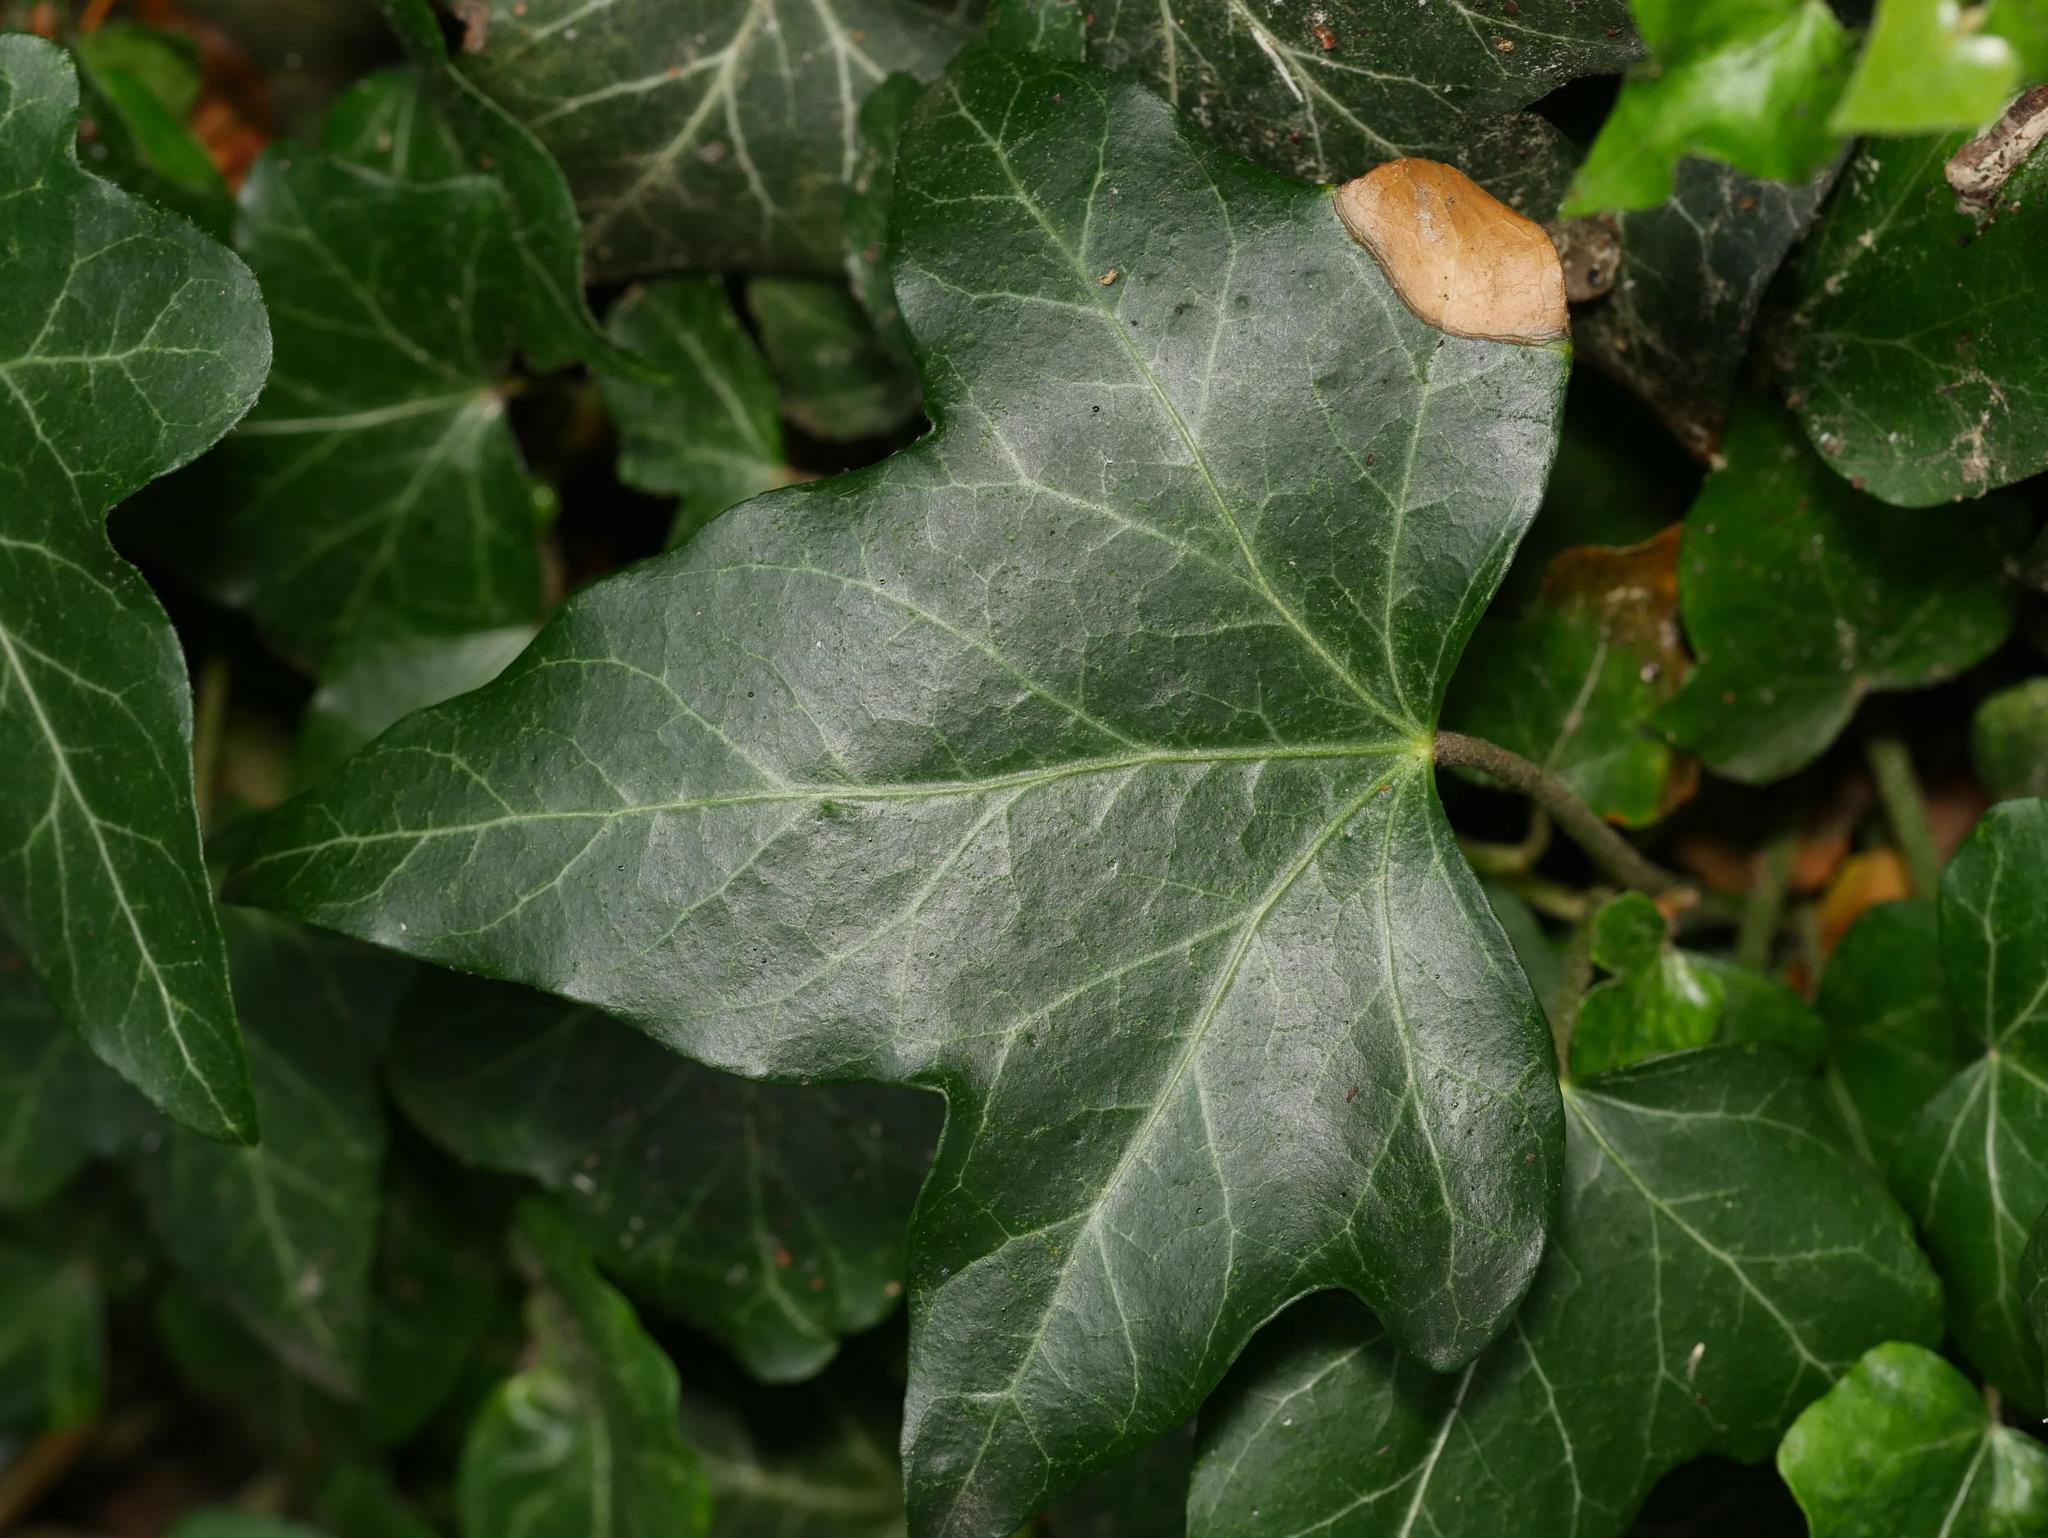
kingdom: Plantae
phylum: Tracheophyta
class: Magnoliopsida
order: Apiales
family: Araliaceae
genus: Hedera
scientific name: Hedera helix
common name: Ivy
